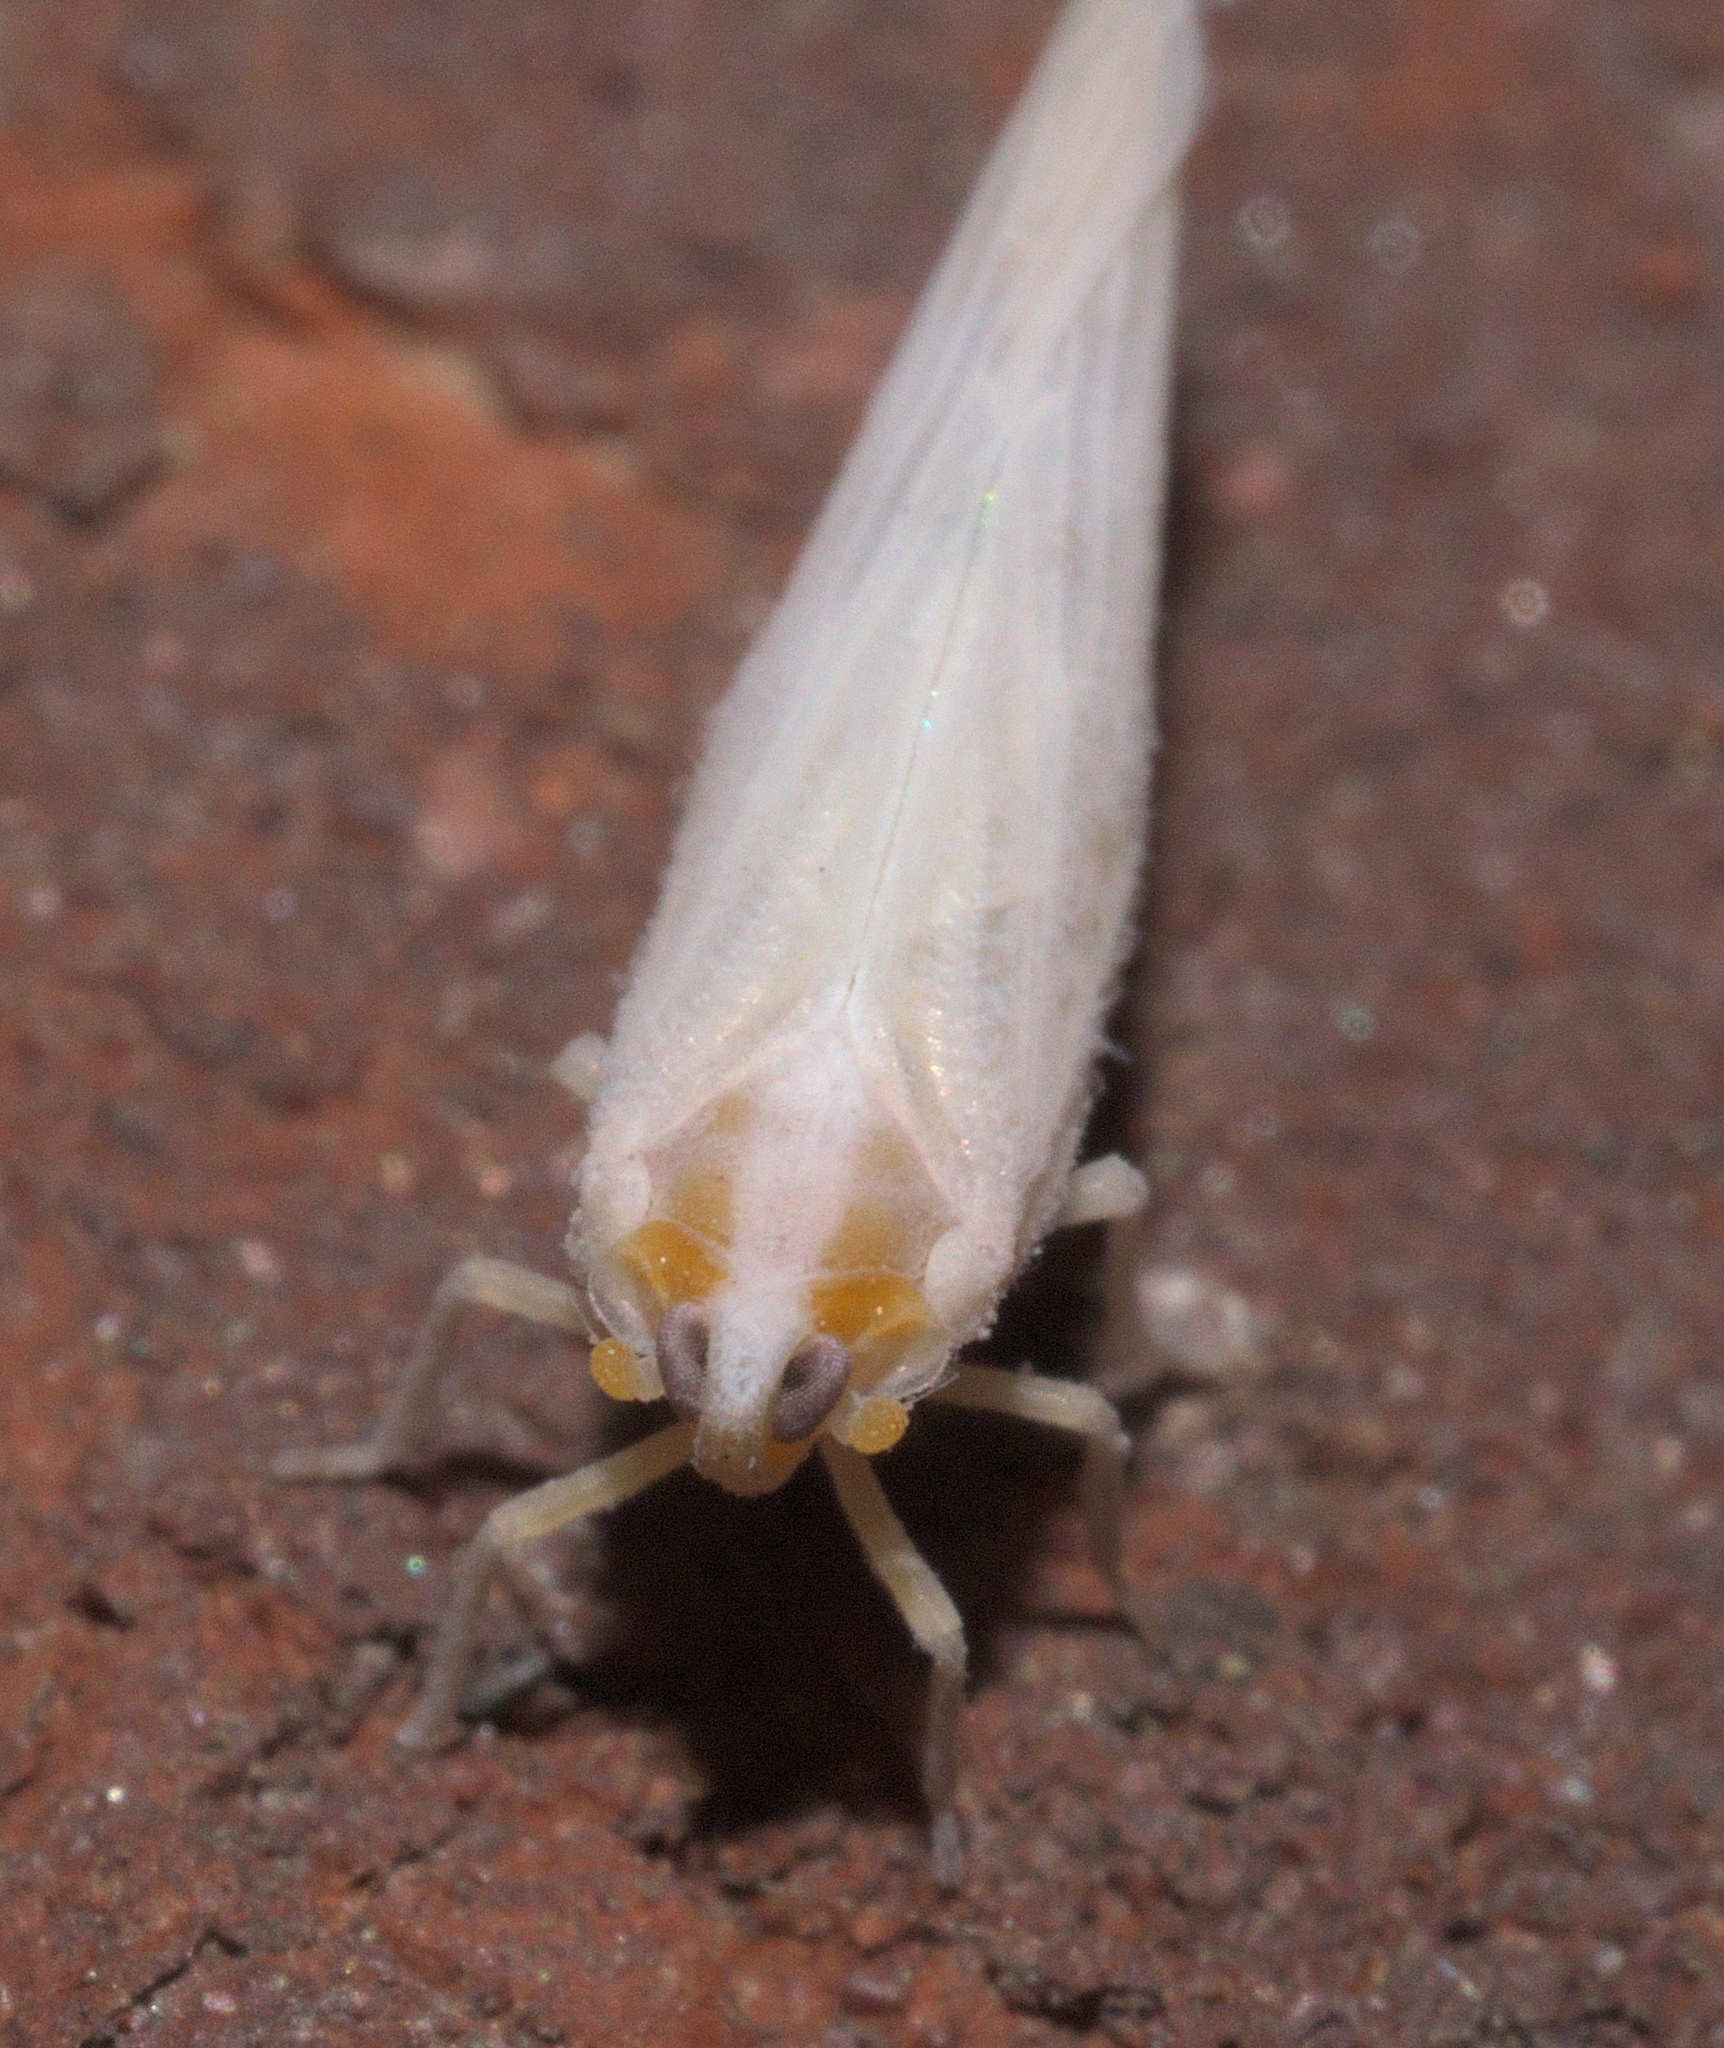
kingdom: Animalia
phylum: Arthropoda
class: Insecta
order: Hemiptera
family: Derbidae
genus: Neocenchrea
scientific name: Neocenchrea heidemanni
